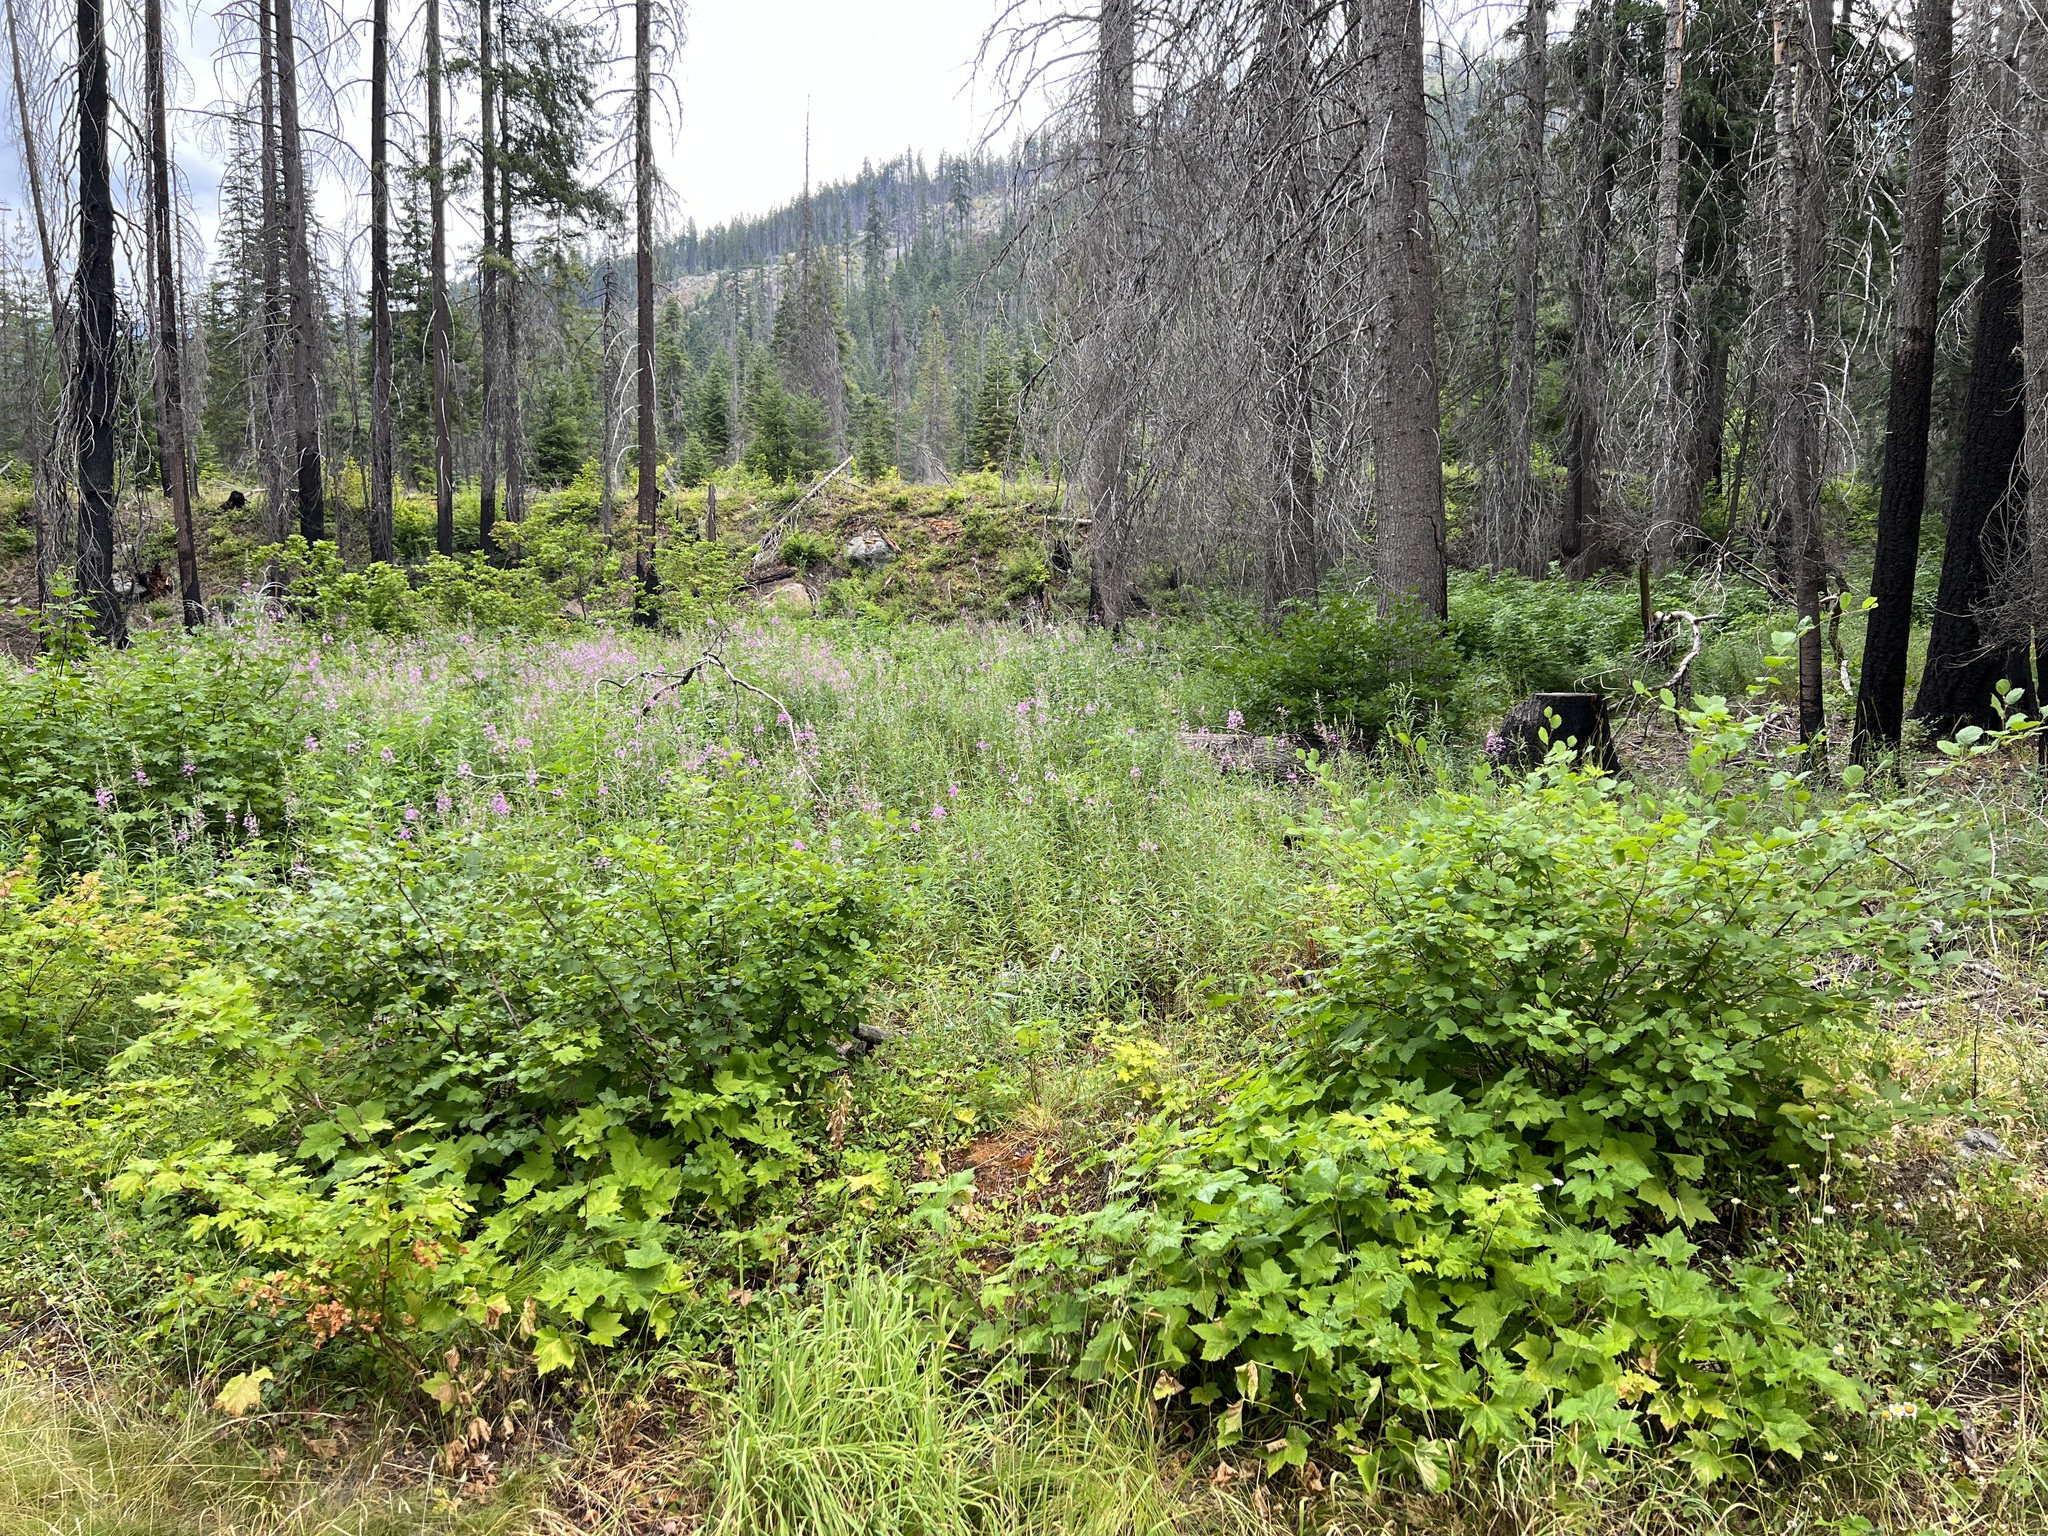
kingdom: Plantae
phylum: Tracheophyta
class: Magnoliopsida
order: Myrtales
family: Onagraceae
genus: Chamaenerion
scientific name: Chamaenerion angustifolium
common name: Fireweed
